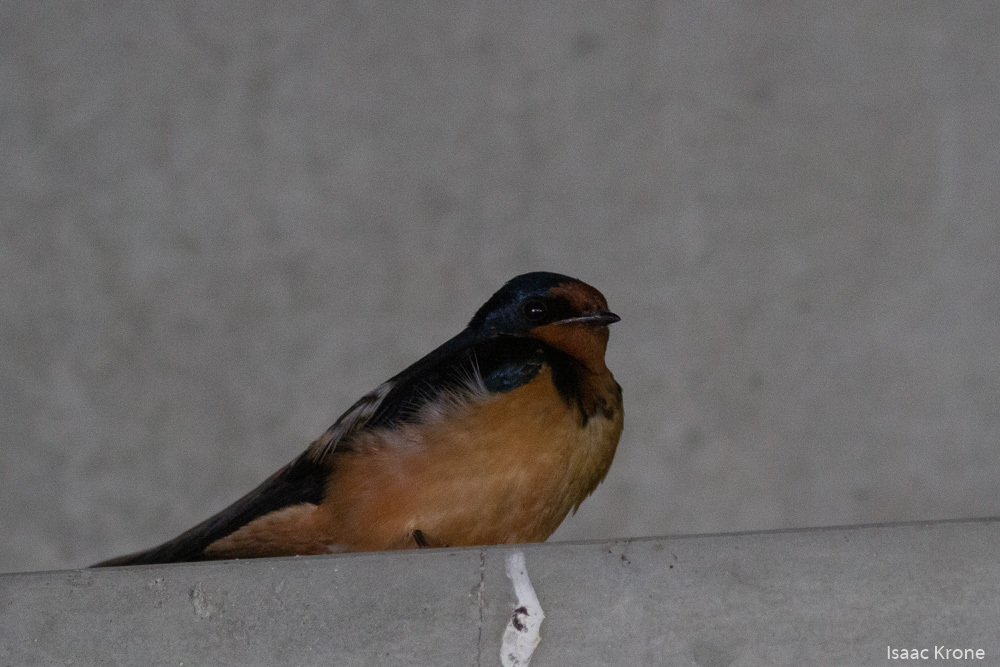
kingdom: Animalia
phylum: Chordata
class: Aves
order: Passeriformes
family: Hirundinidae
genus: Hirundo
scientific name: Hirundo rustica
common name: Barn swallow
